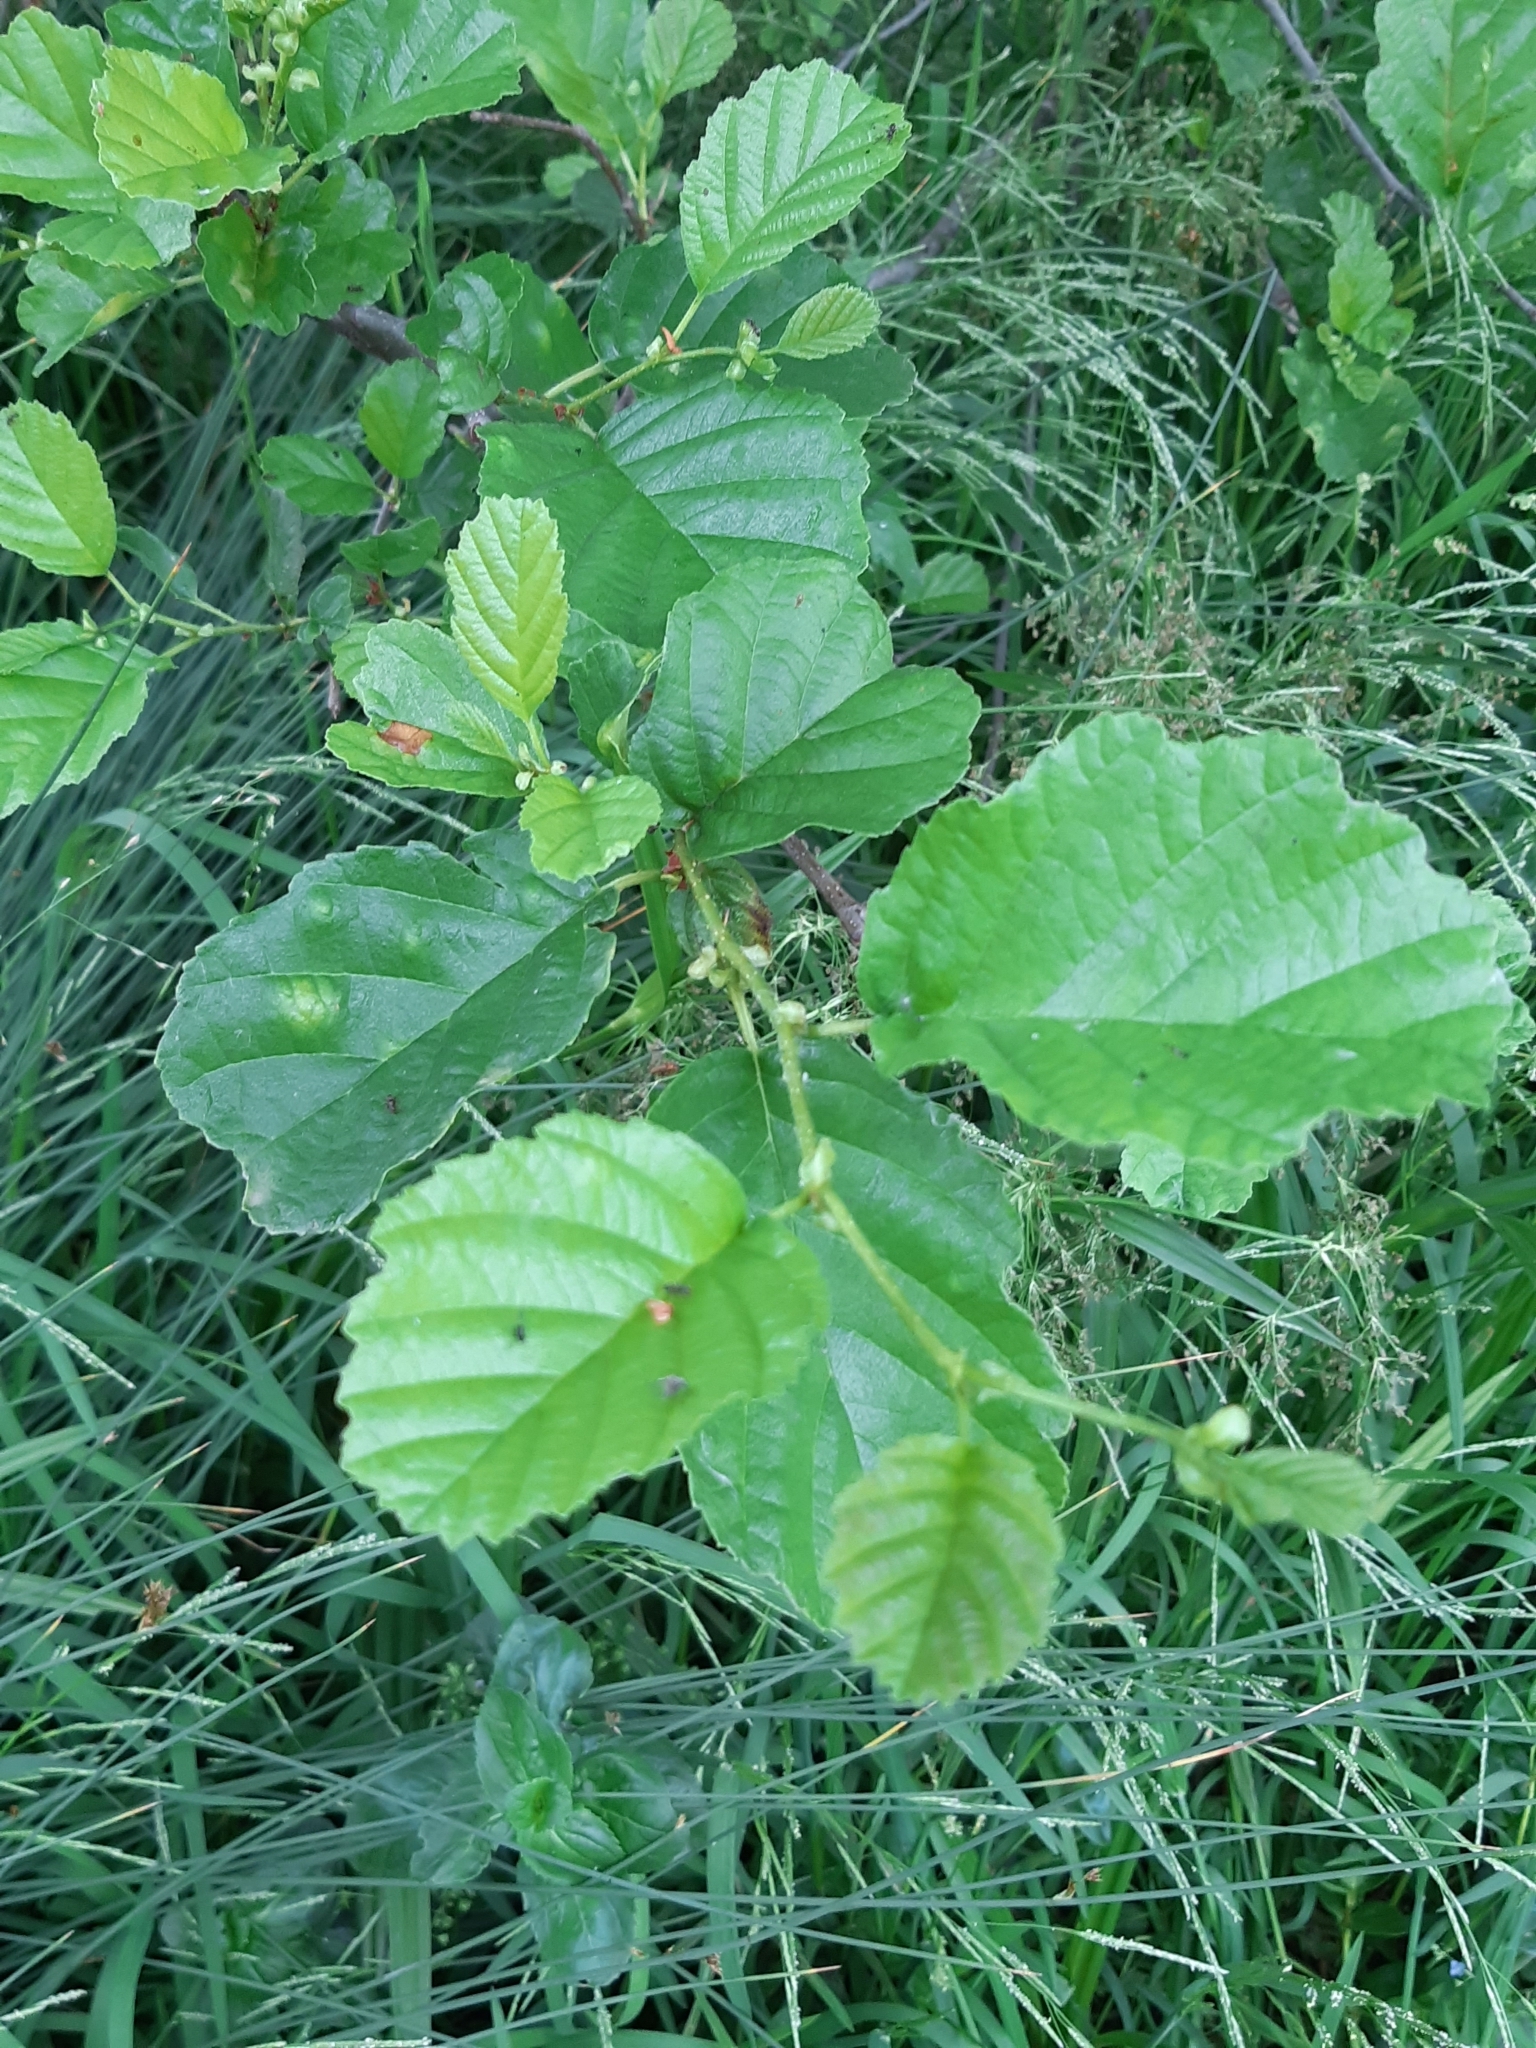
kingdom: Plantae
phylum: Tracheophyta
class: Magnoliopsida
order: Fagales
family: Betulaceae
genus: Alnus
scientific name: Alnus glutinosa
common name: Black alder
